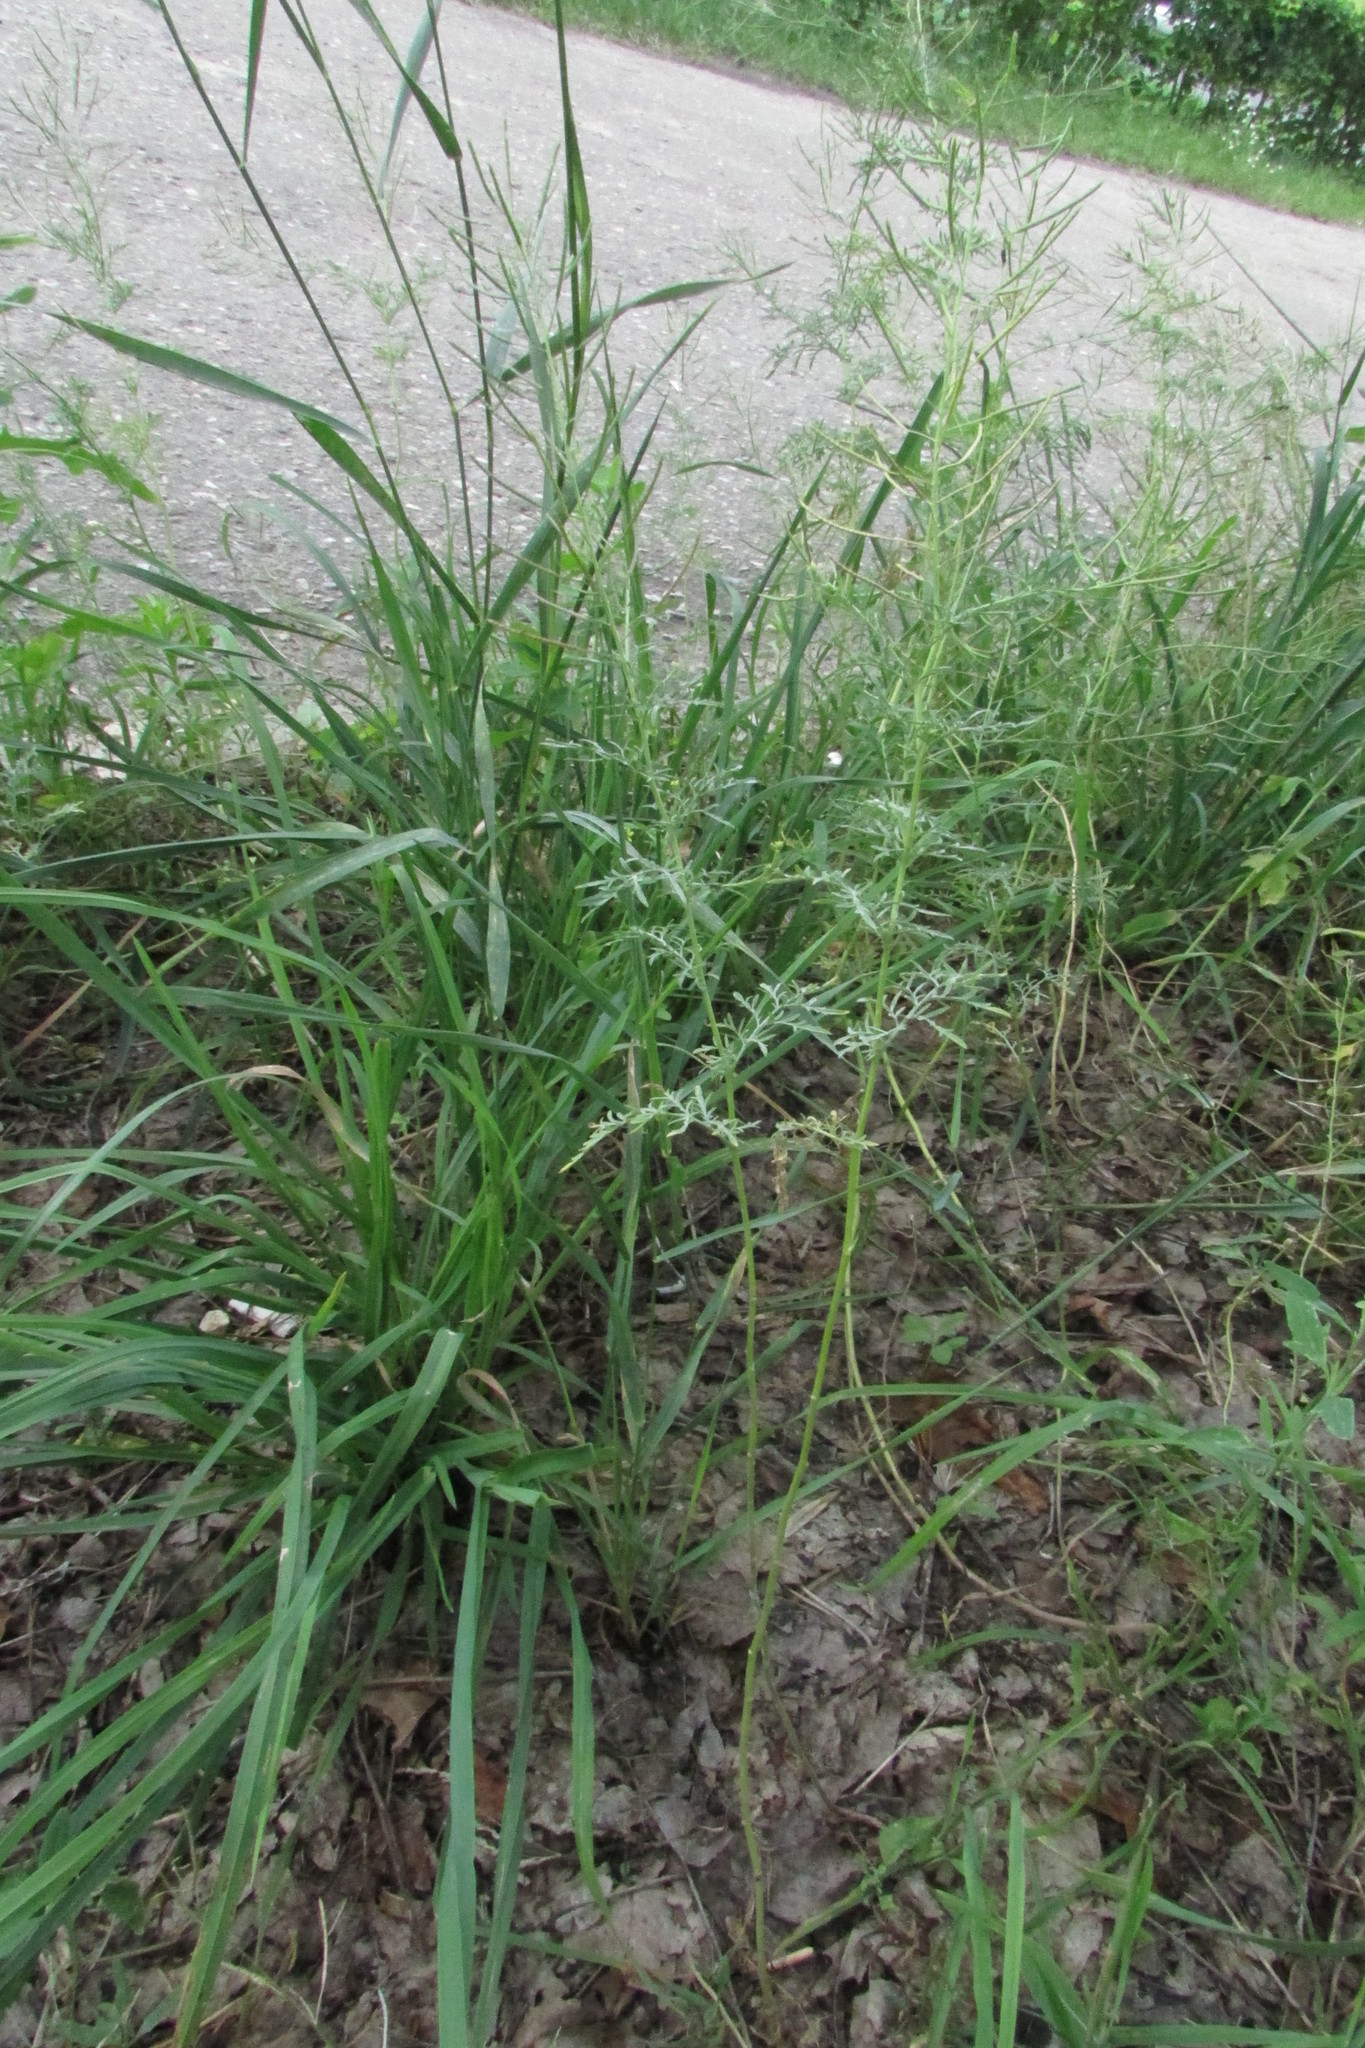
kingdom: Plantae
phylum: Tracheophyta
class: Magnoliopsida
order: Brassicales
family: Brassicaceae
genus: Descurainia
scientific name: Descurainia sophia
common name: Flixweed
